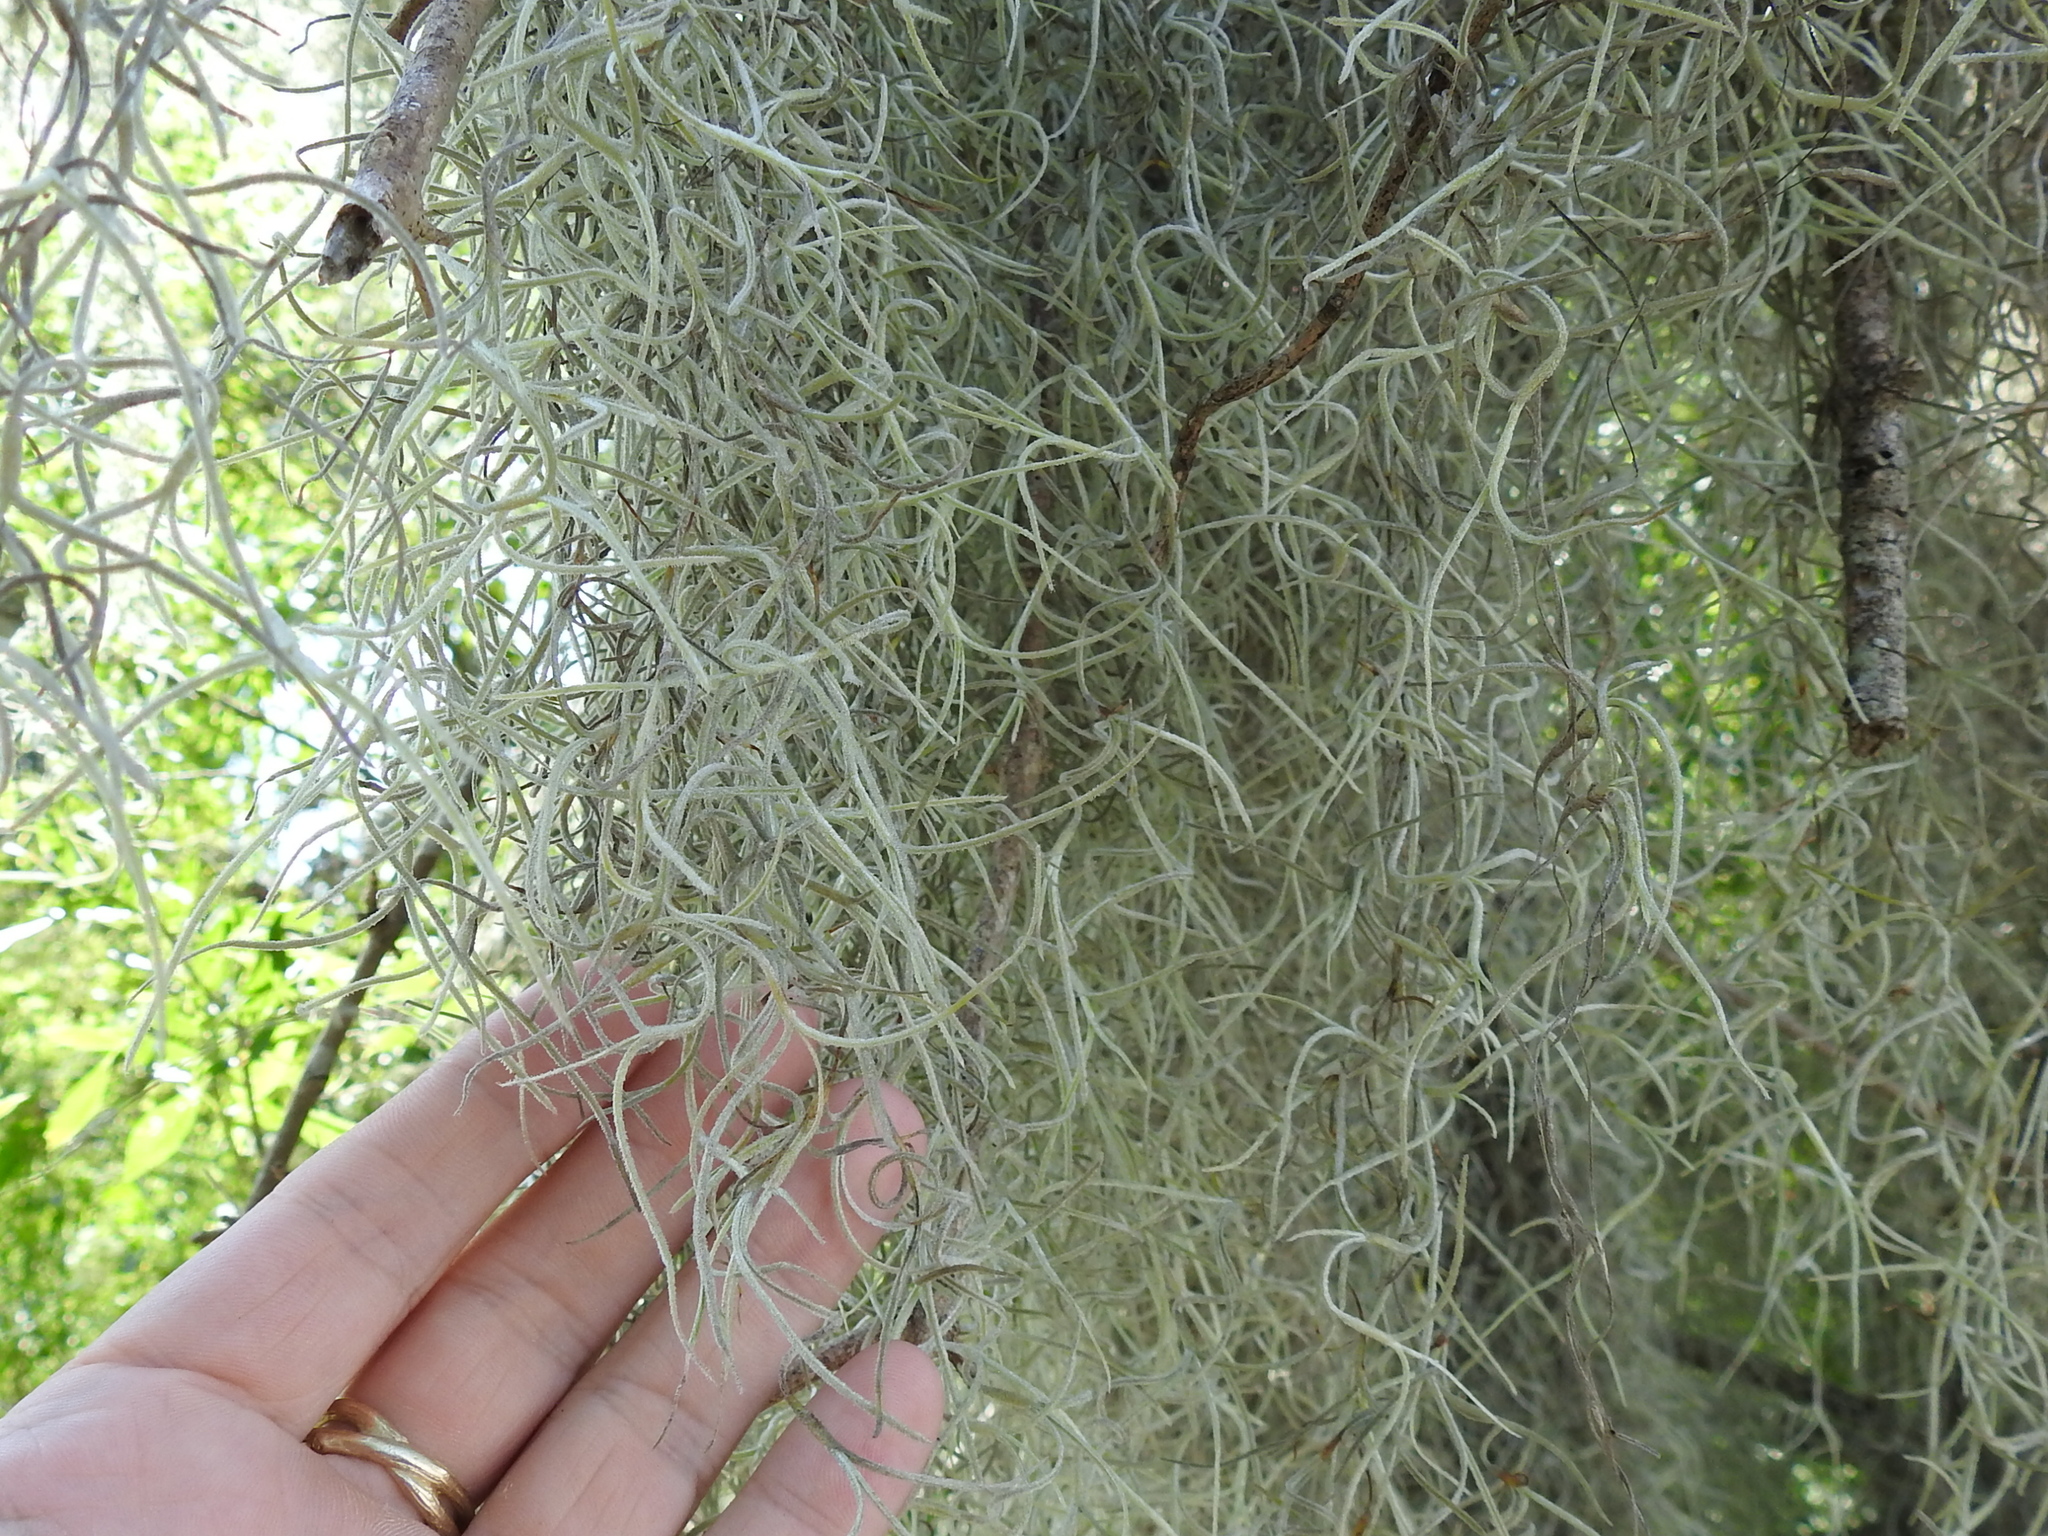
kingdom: Plantae
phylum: Tracheophyta
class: Liliopsida
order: Poales
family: Bromeliaceae
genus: Tillandsia
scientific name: Tillandsia usneoides
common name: Spanish moss
